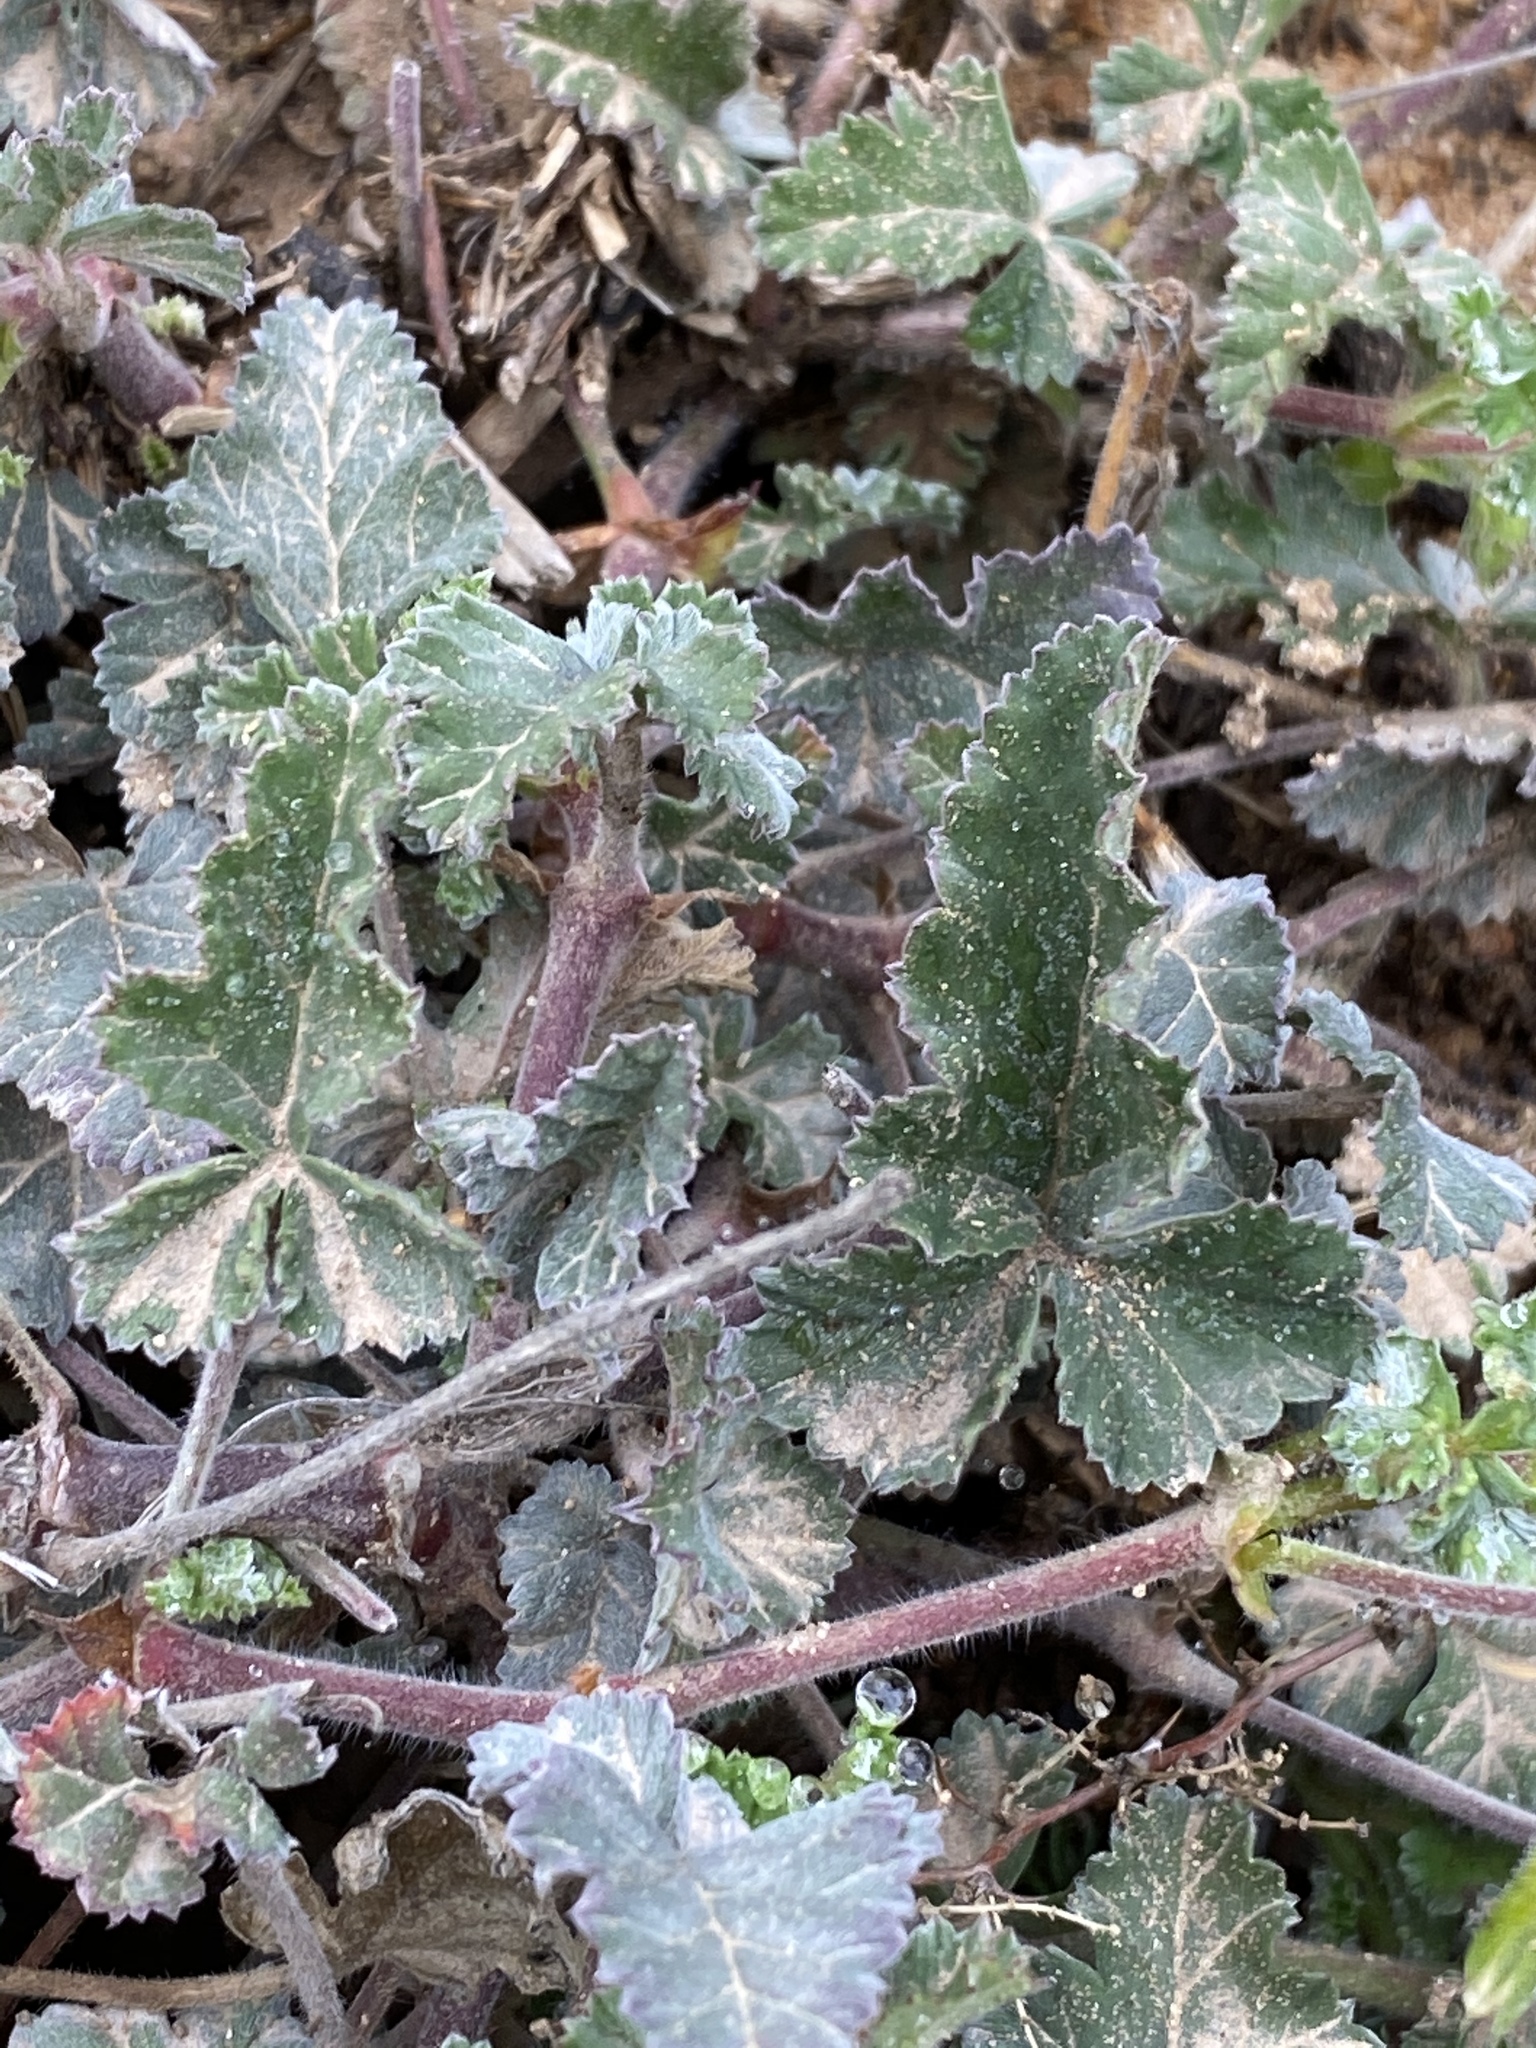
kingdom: Plantae
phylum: Tracheophyta
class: Magnoliopsida
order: Geraniales
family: Geraniaceae
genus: Pelargonium
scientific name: Pelargonium candicans
